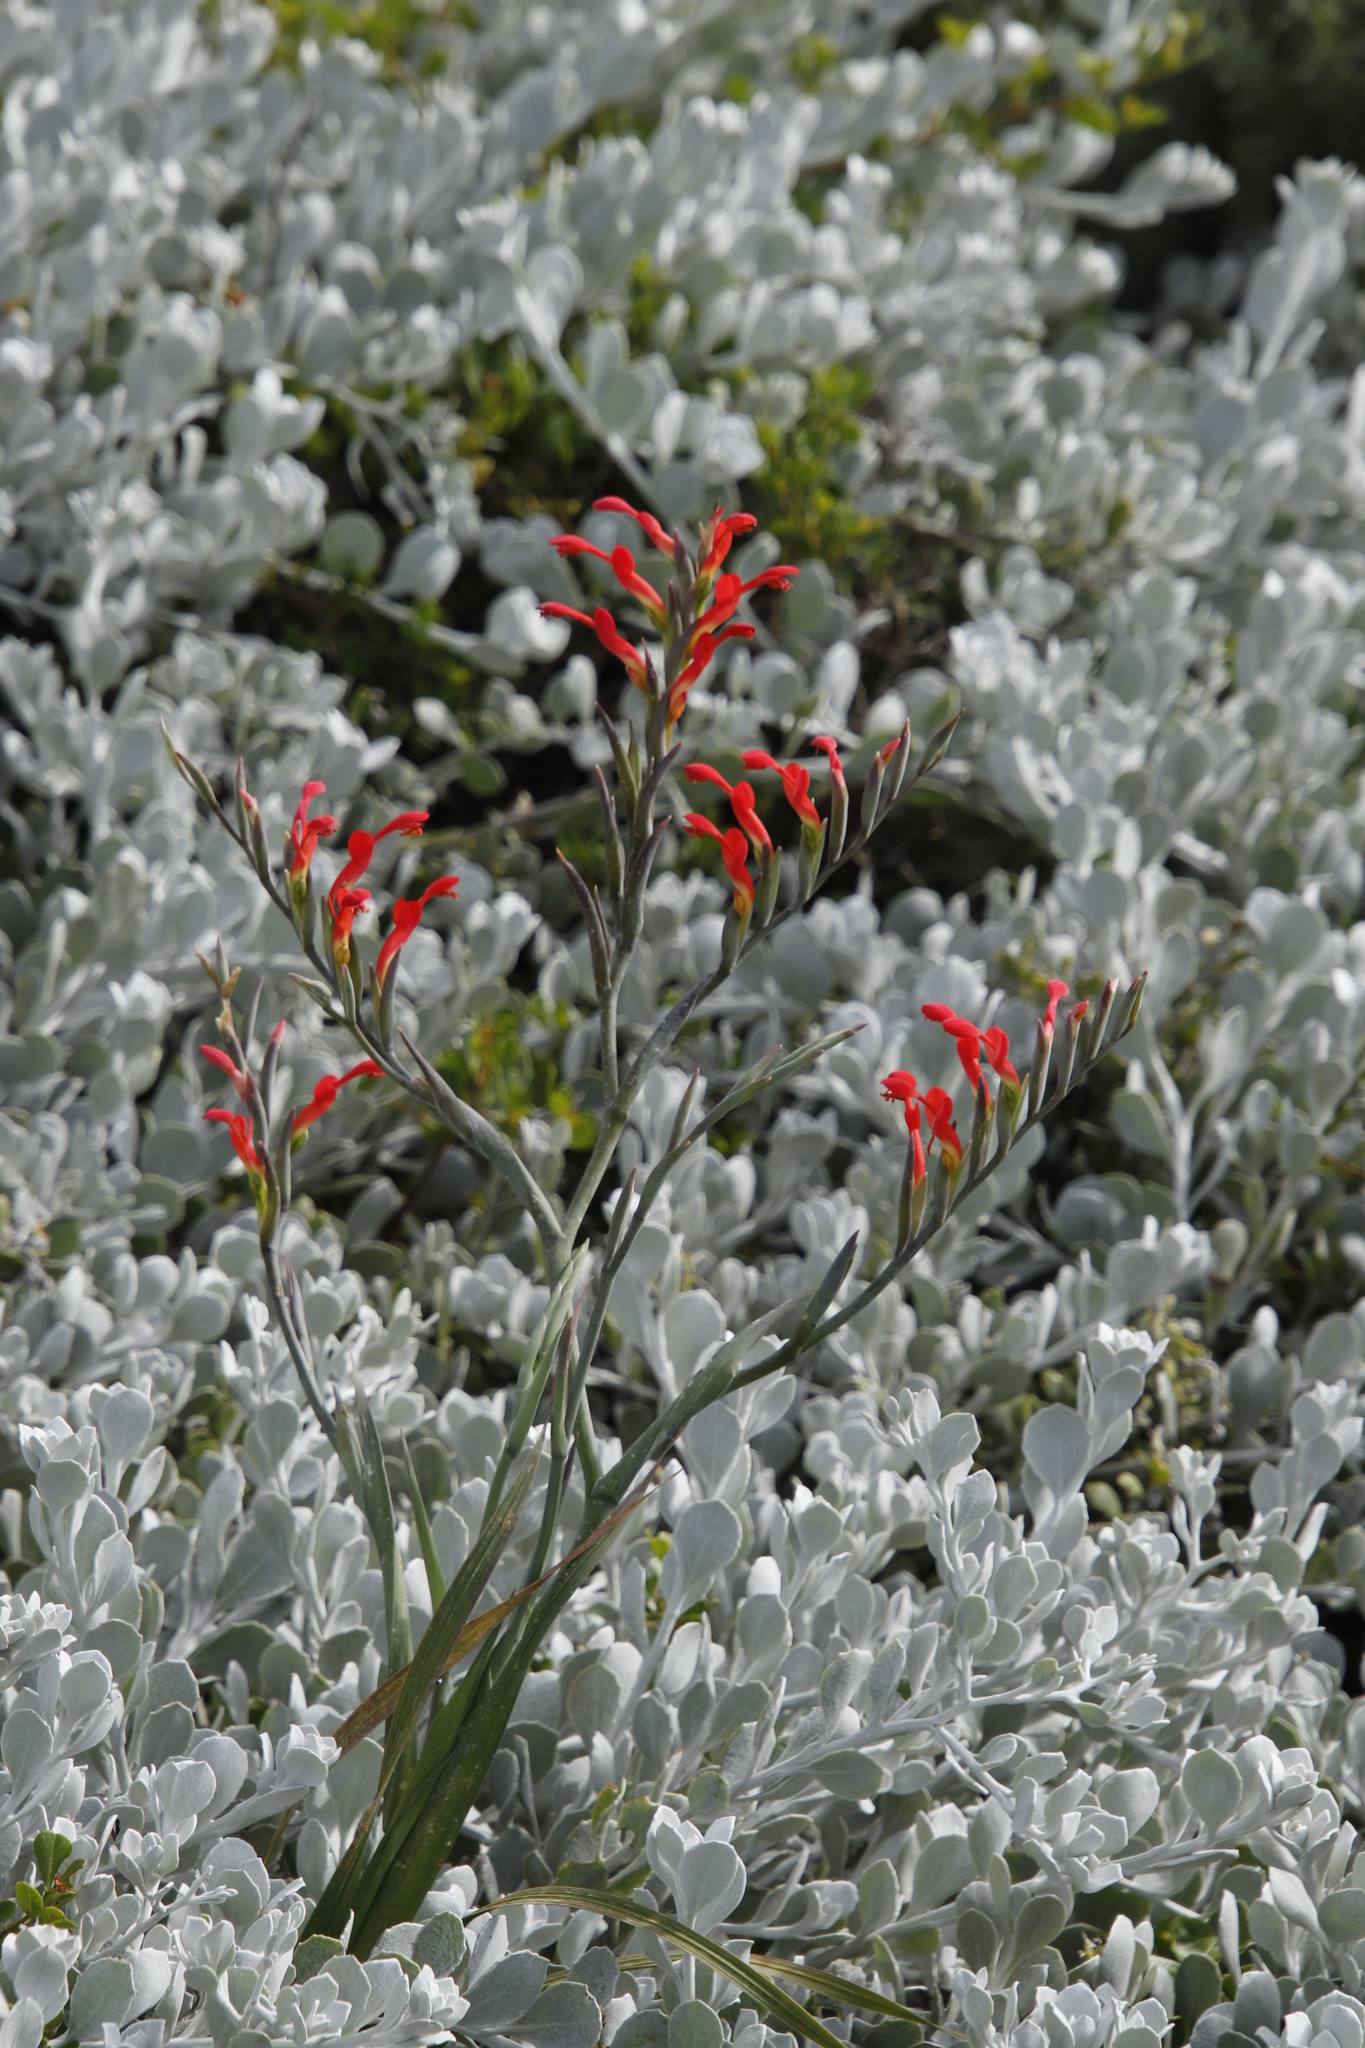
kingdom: Plantae
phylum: Tracheophyta
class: Liliopsida
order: Asparagales
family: Iridaceae
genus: Gladiolus
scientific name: Gladiolus cunonius
